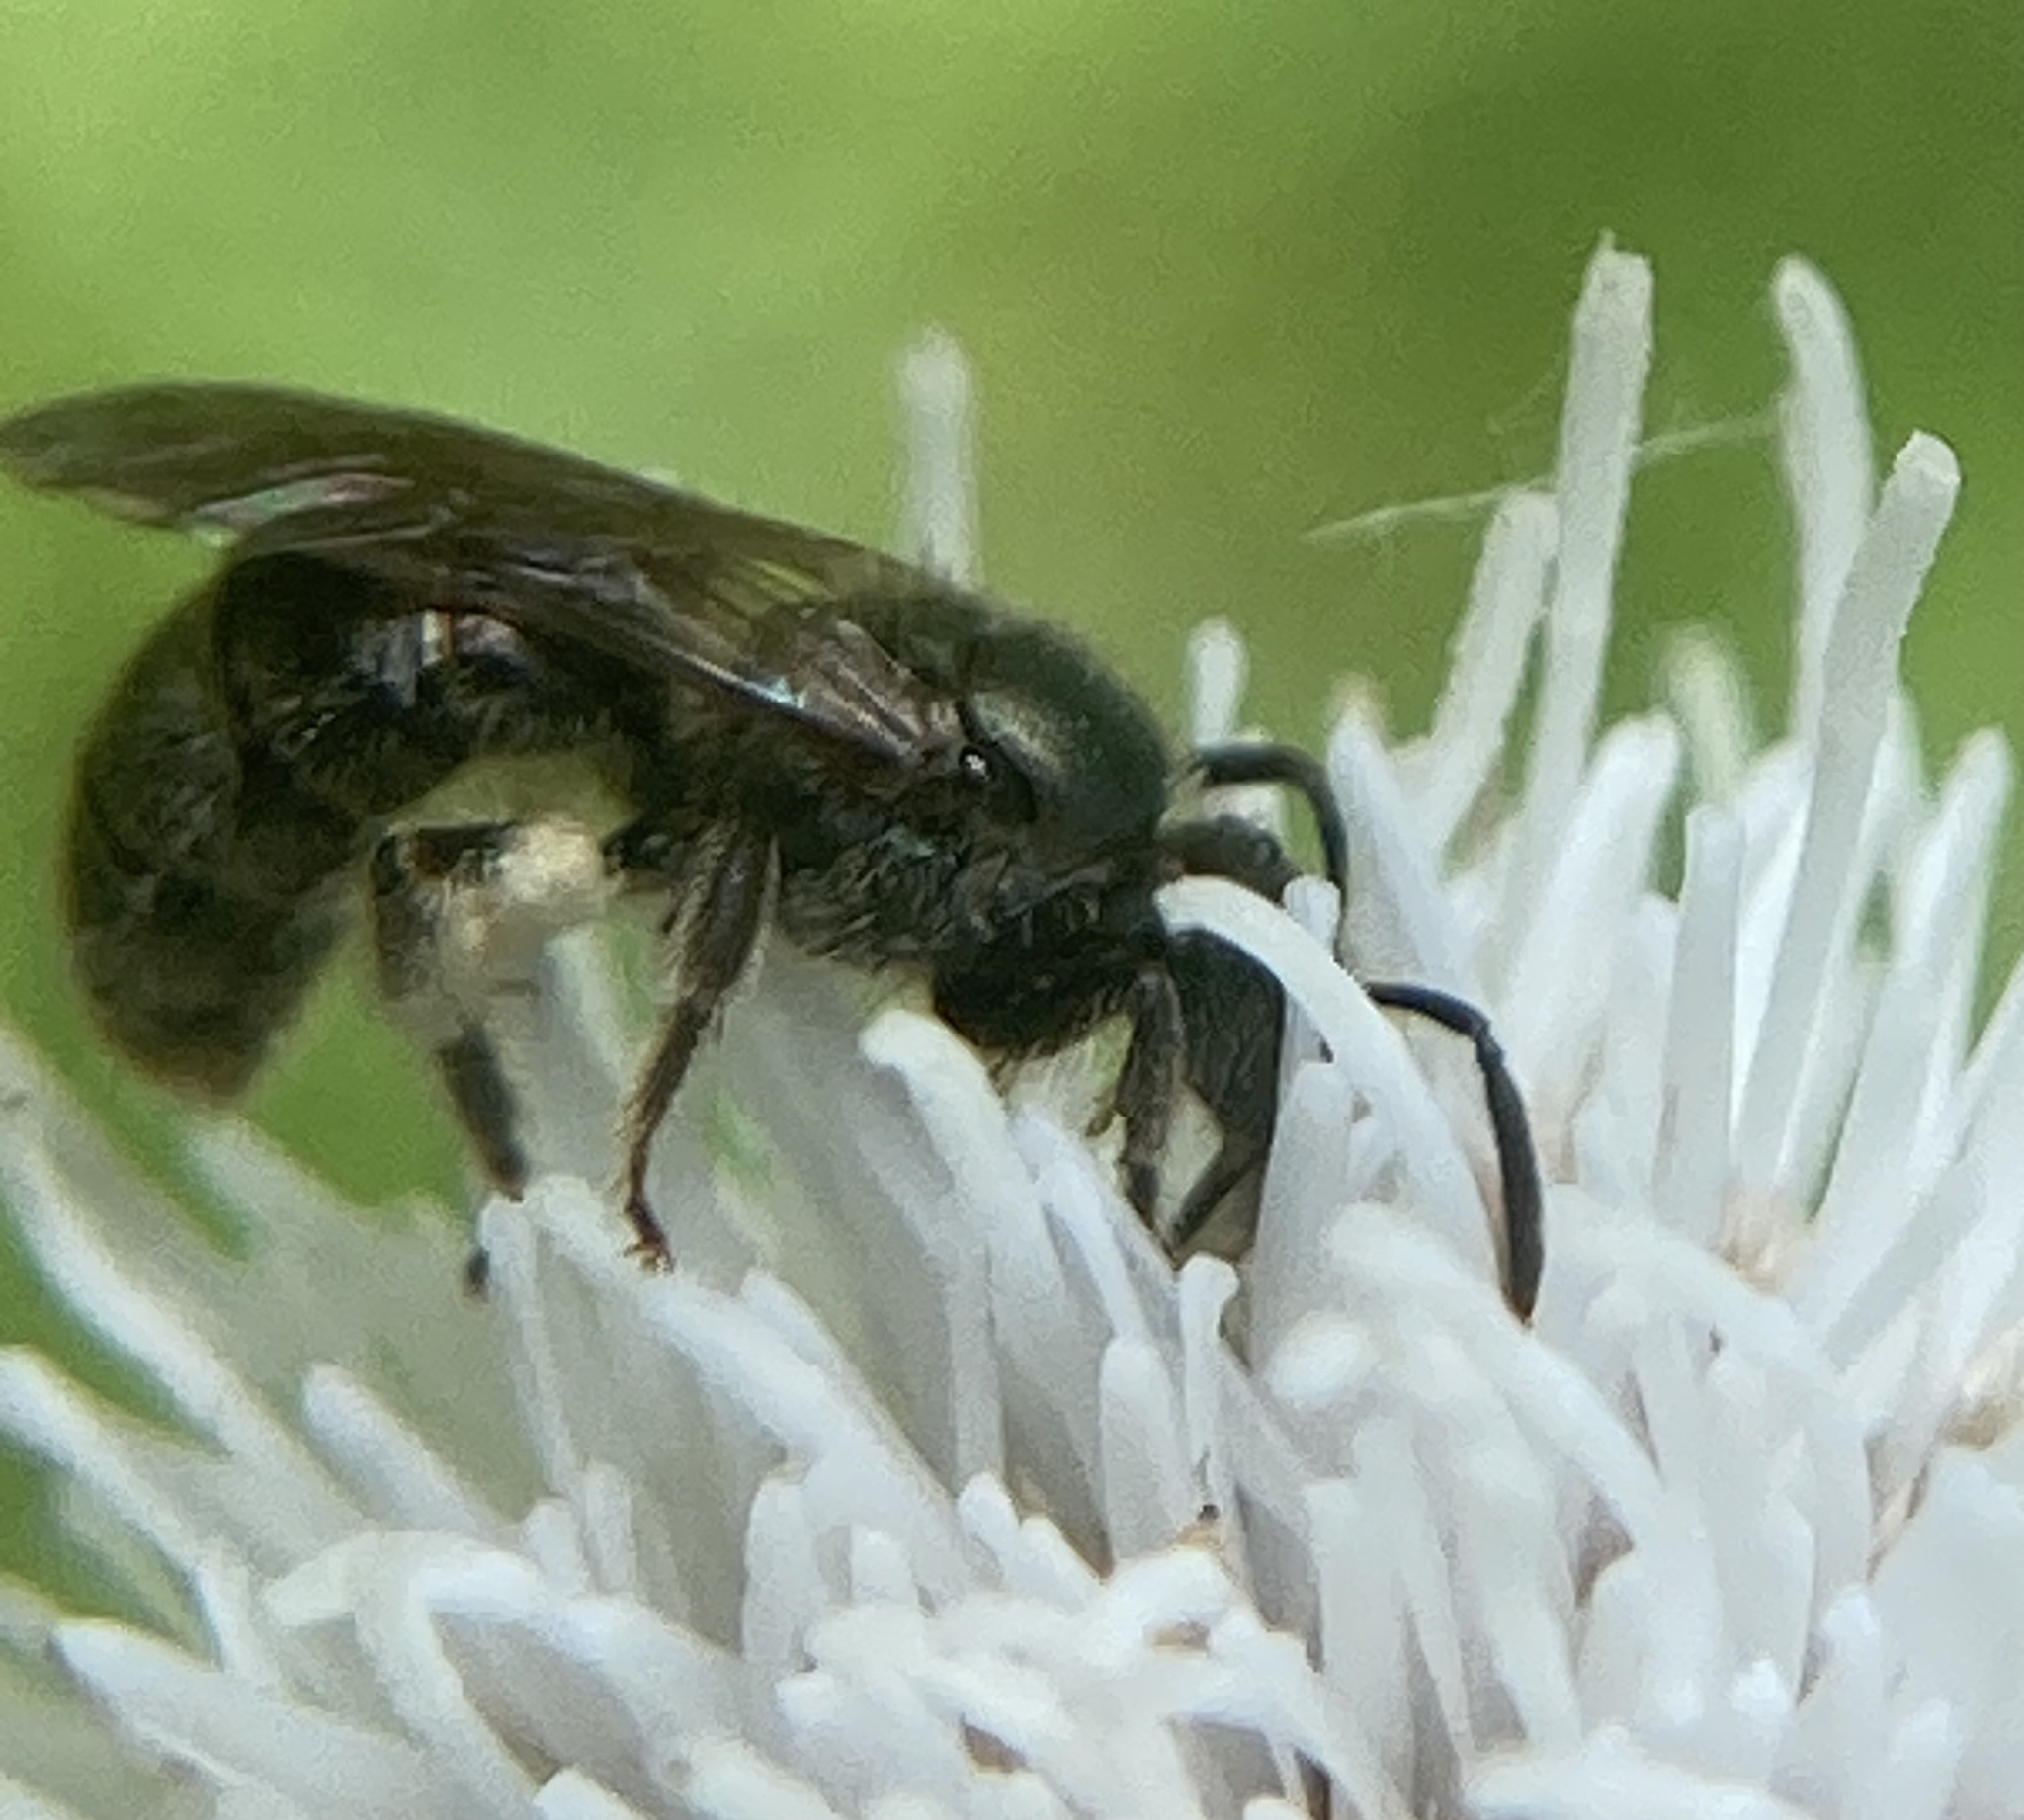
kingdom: Animalia
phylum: Arthropoda
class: Insecta
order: Hymenoptera
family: Halictidae
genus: Dialictus
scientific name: Dialictus
